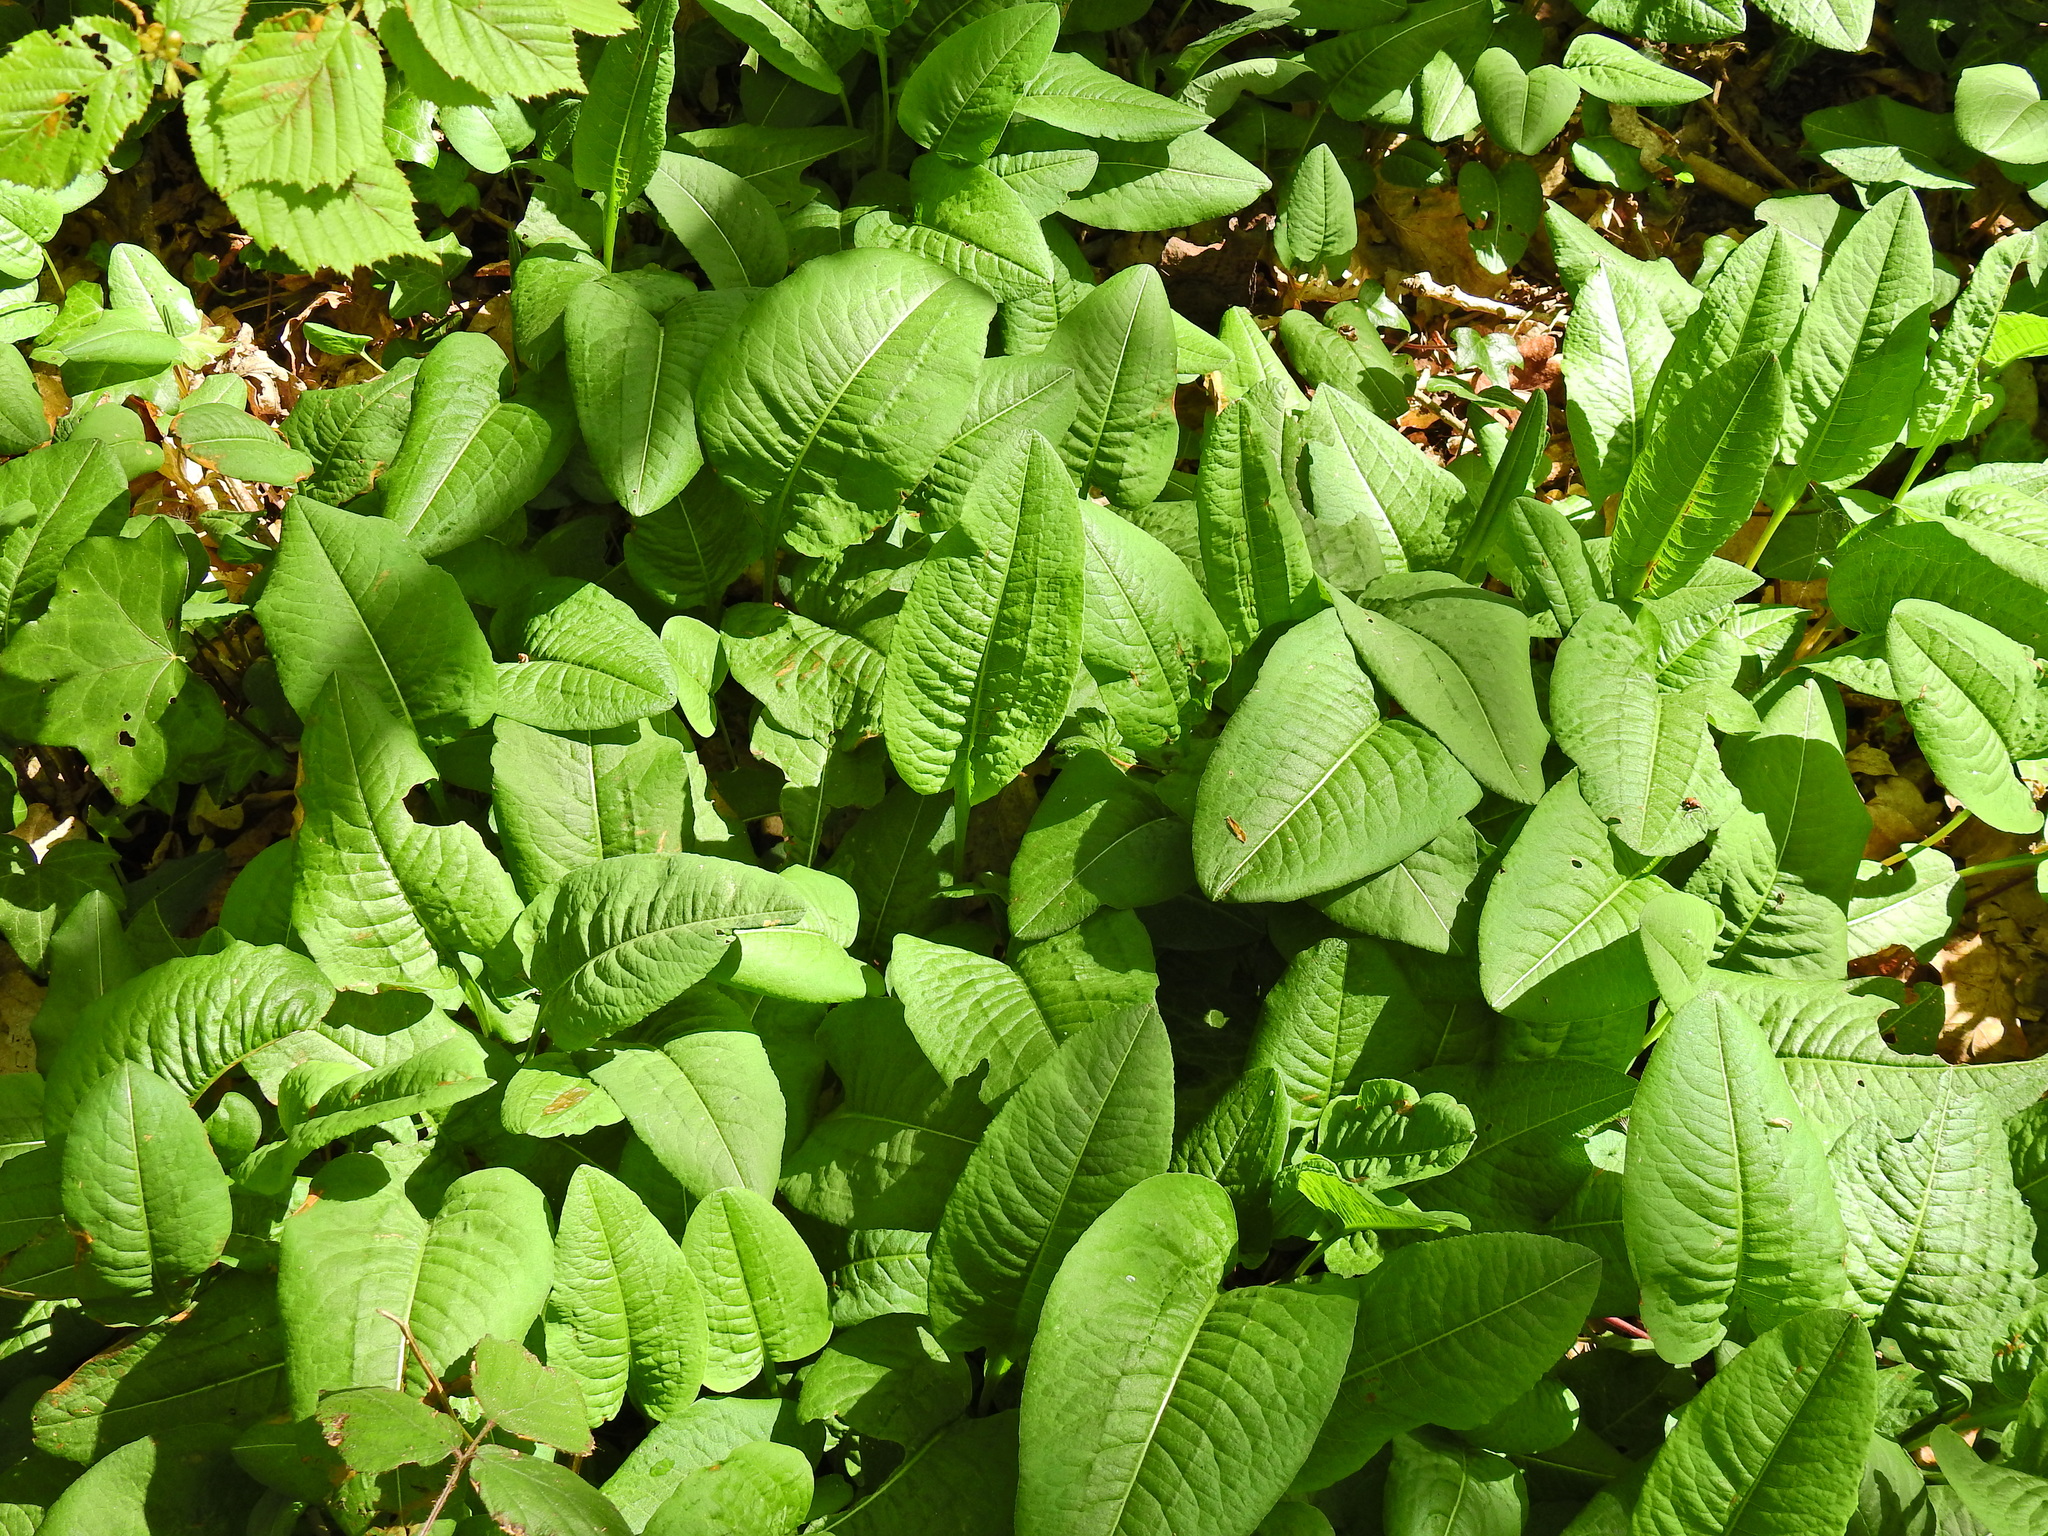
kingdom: Plantae
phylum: Tracheophyta
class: Magnoliopsida
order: Caryophyllales
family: Polygonaceae
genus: Bistorta
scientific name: Bistorta officinalis
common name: Common bistort
